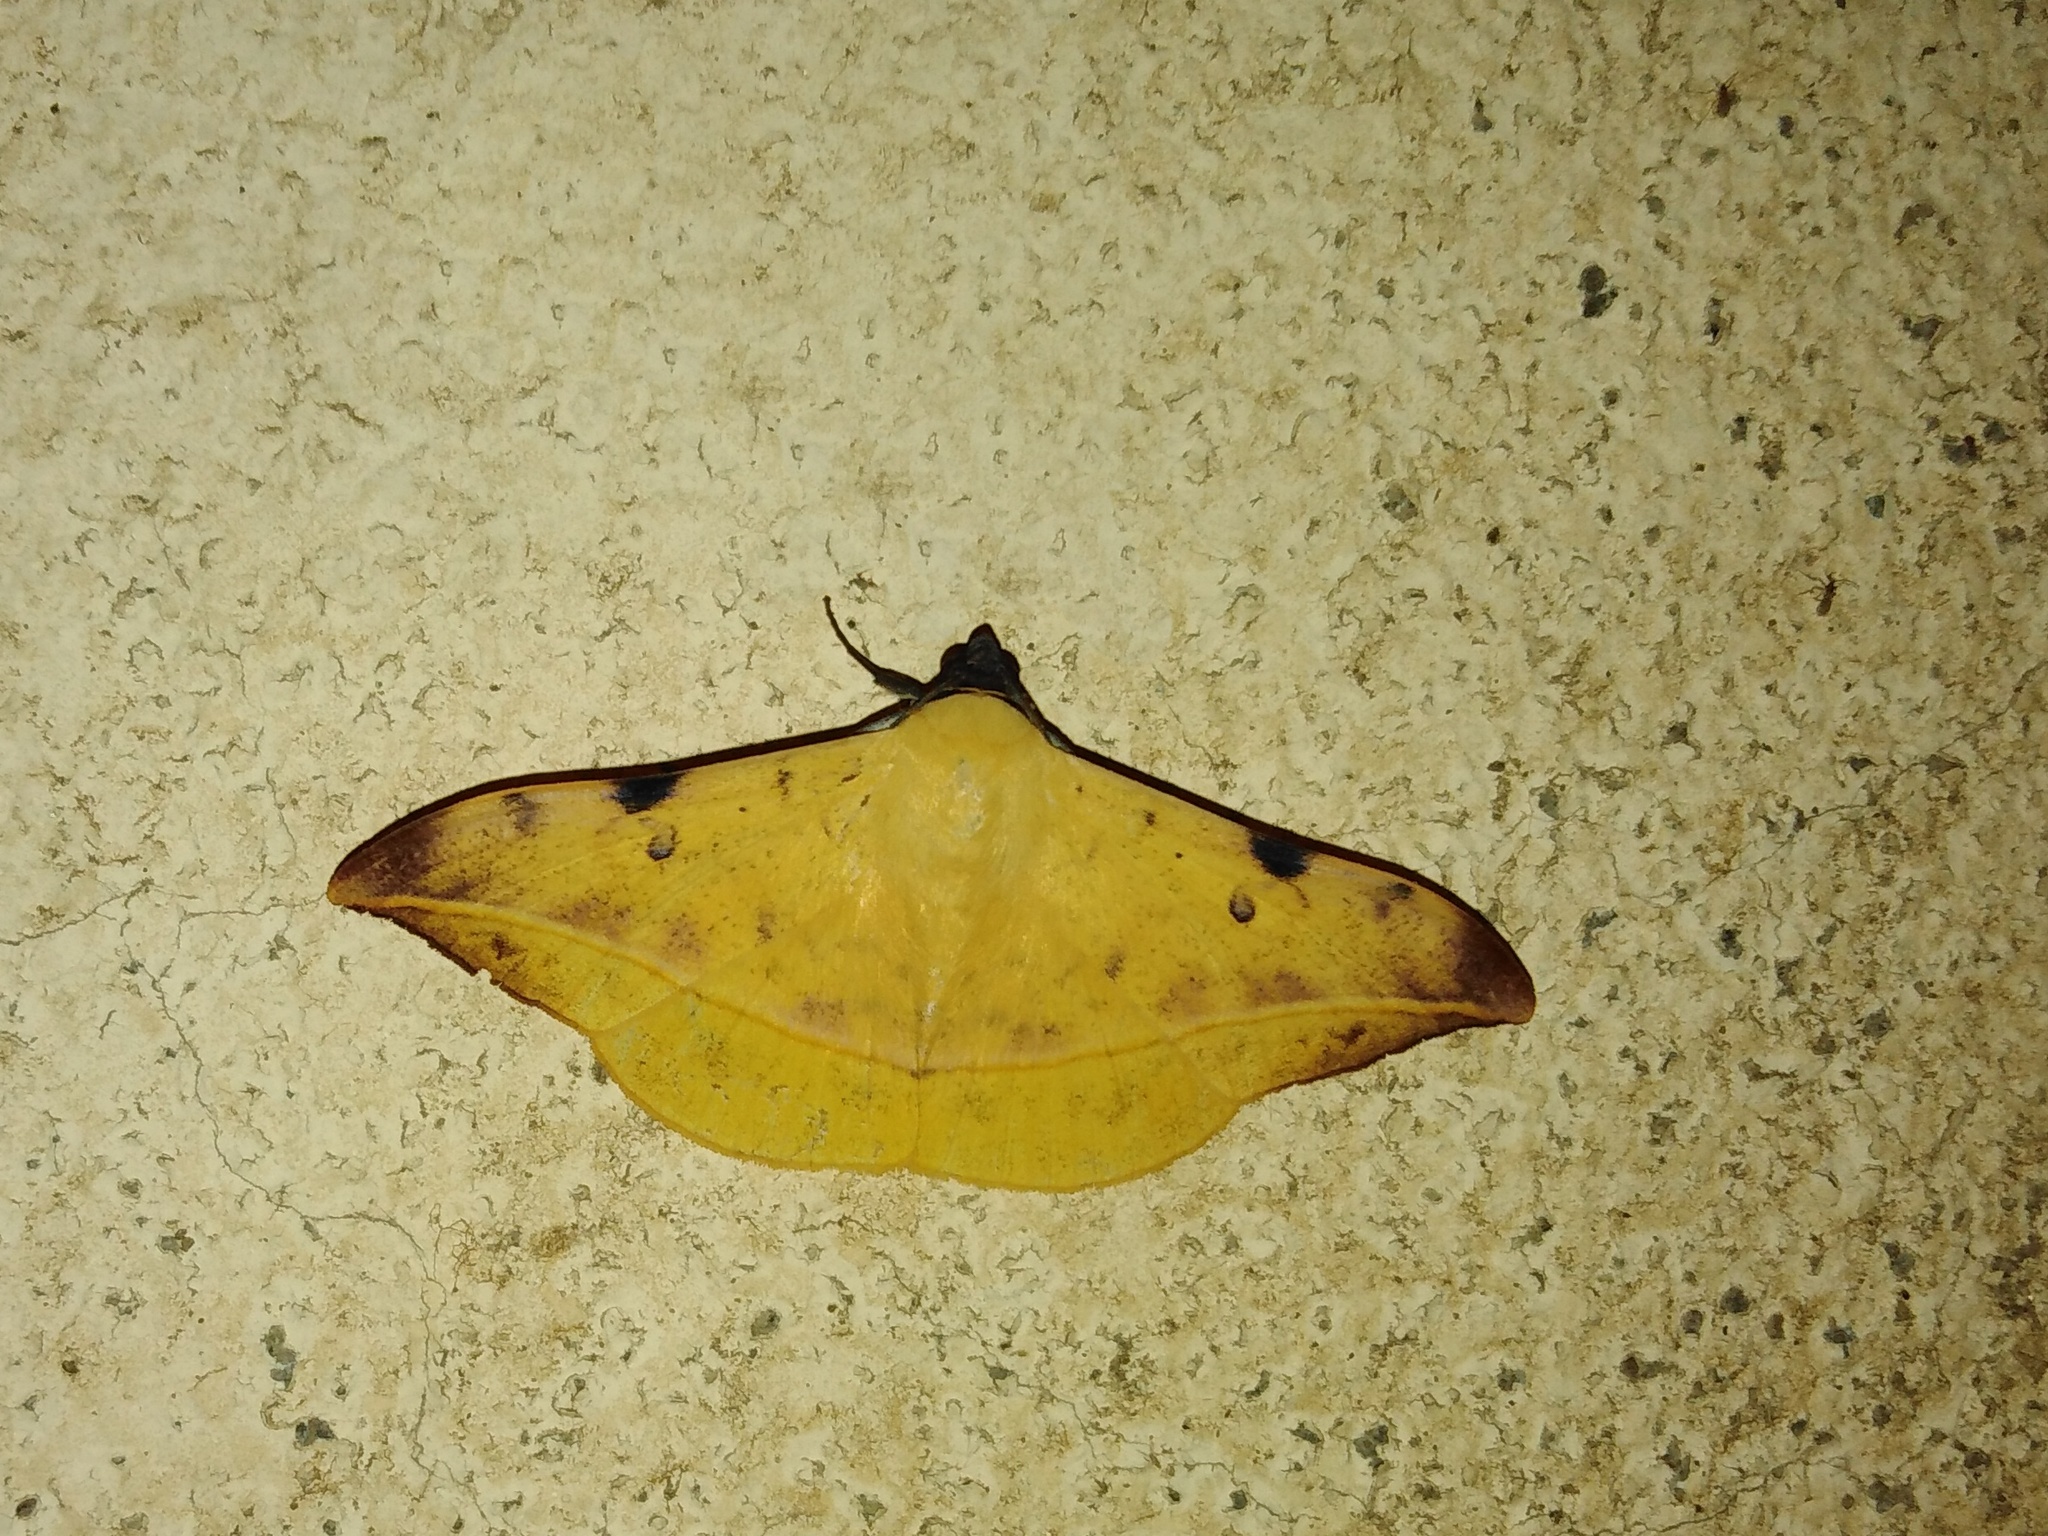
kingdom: Animalia
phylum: Arthropoda
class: Insecta
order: Lepidoptera
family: Erebidae
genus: Hamodes
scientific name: Hamodes propitia
